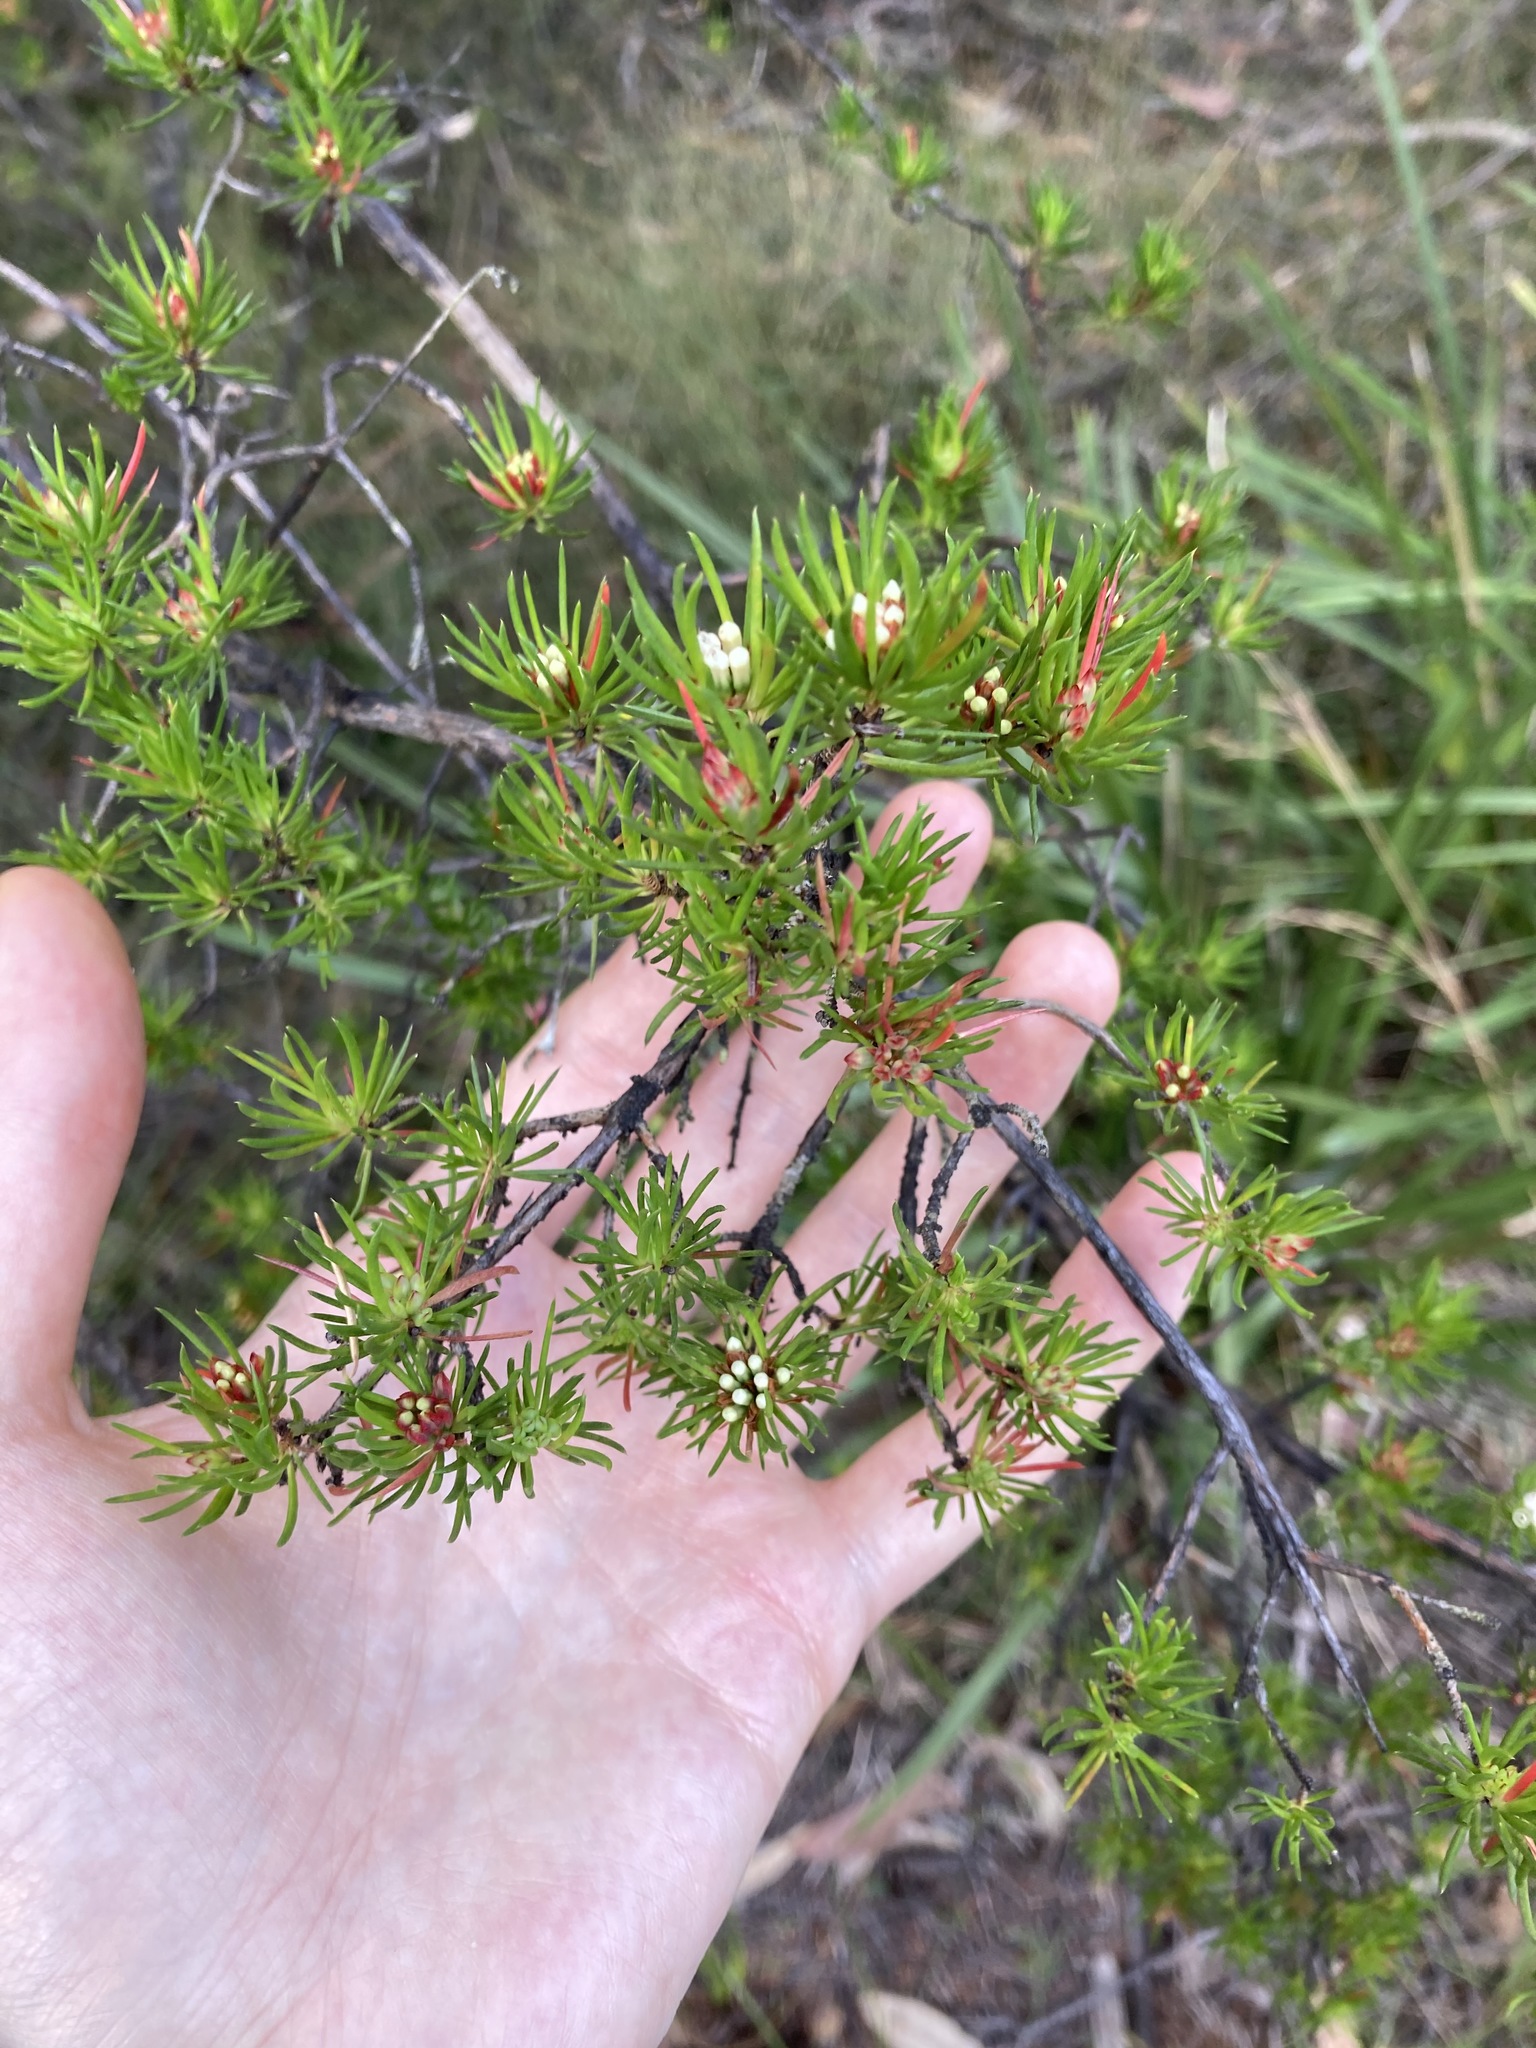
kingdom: Plantae
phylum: Tracheophyta
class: Magnoliopsida
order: Myrtales
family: Myrtaceae
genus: Darwinia
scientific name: Darwinia fascicularis
